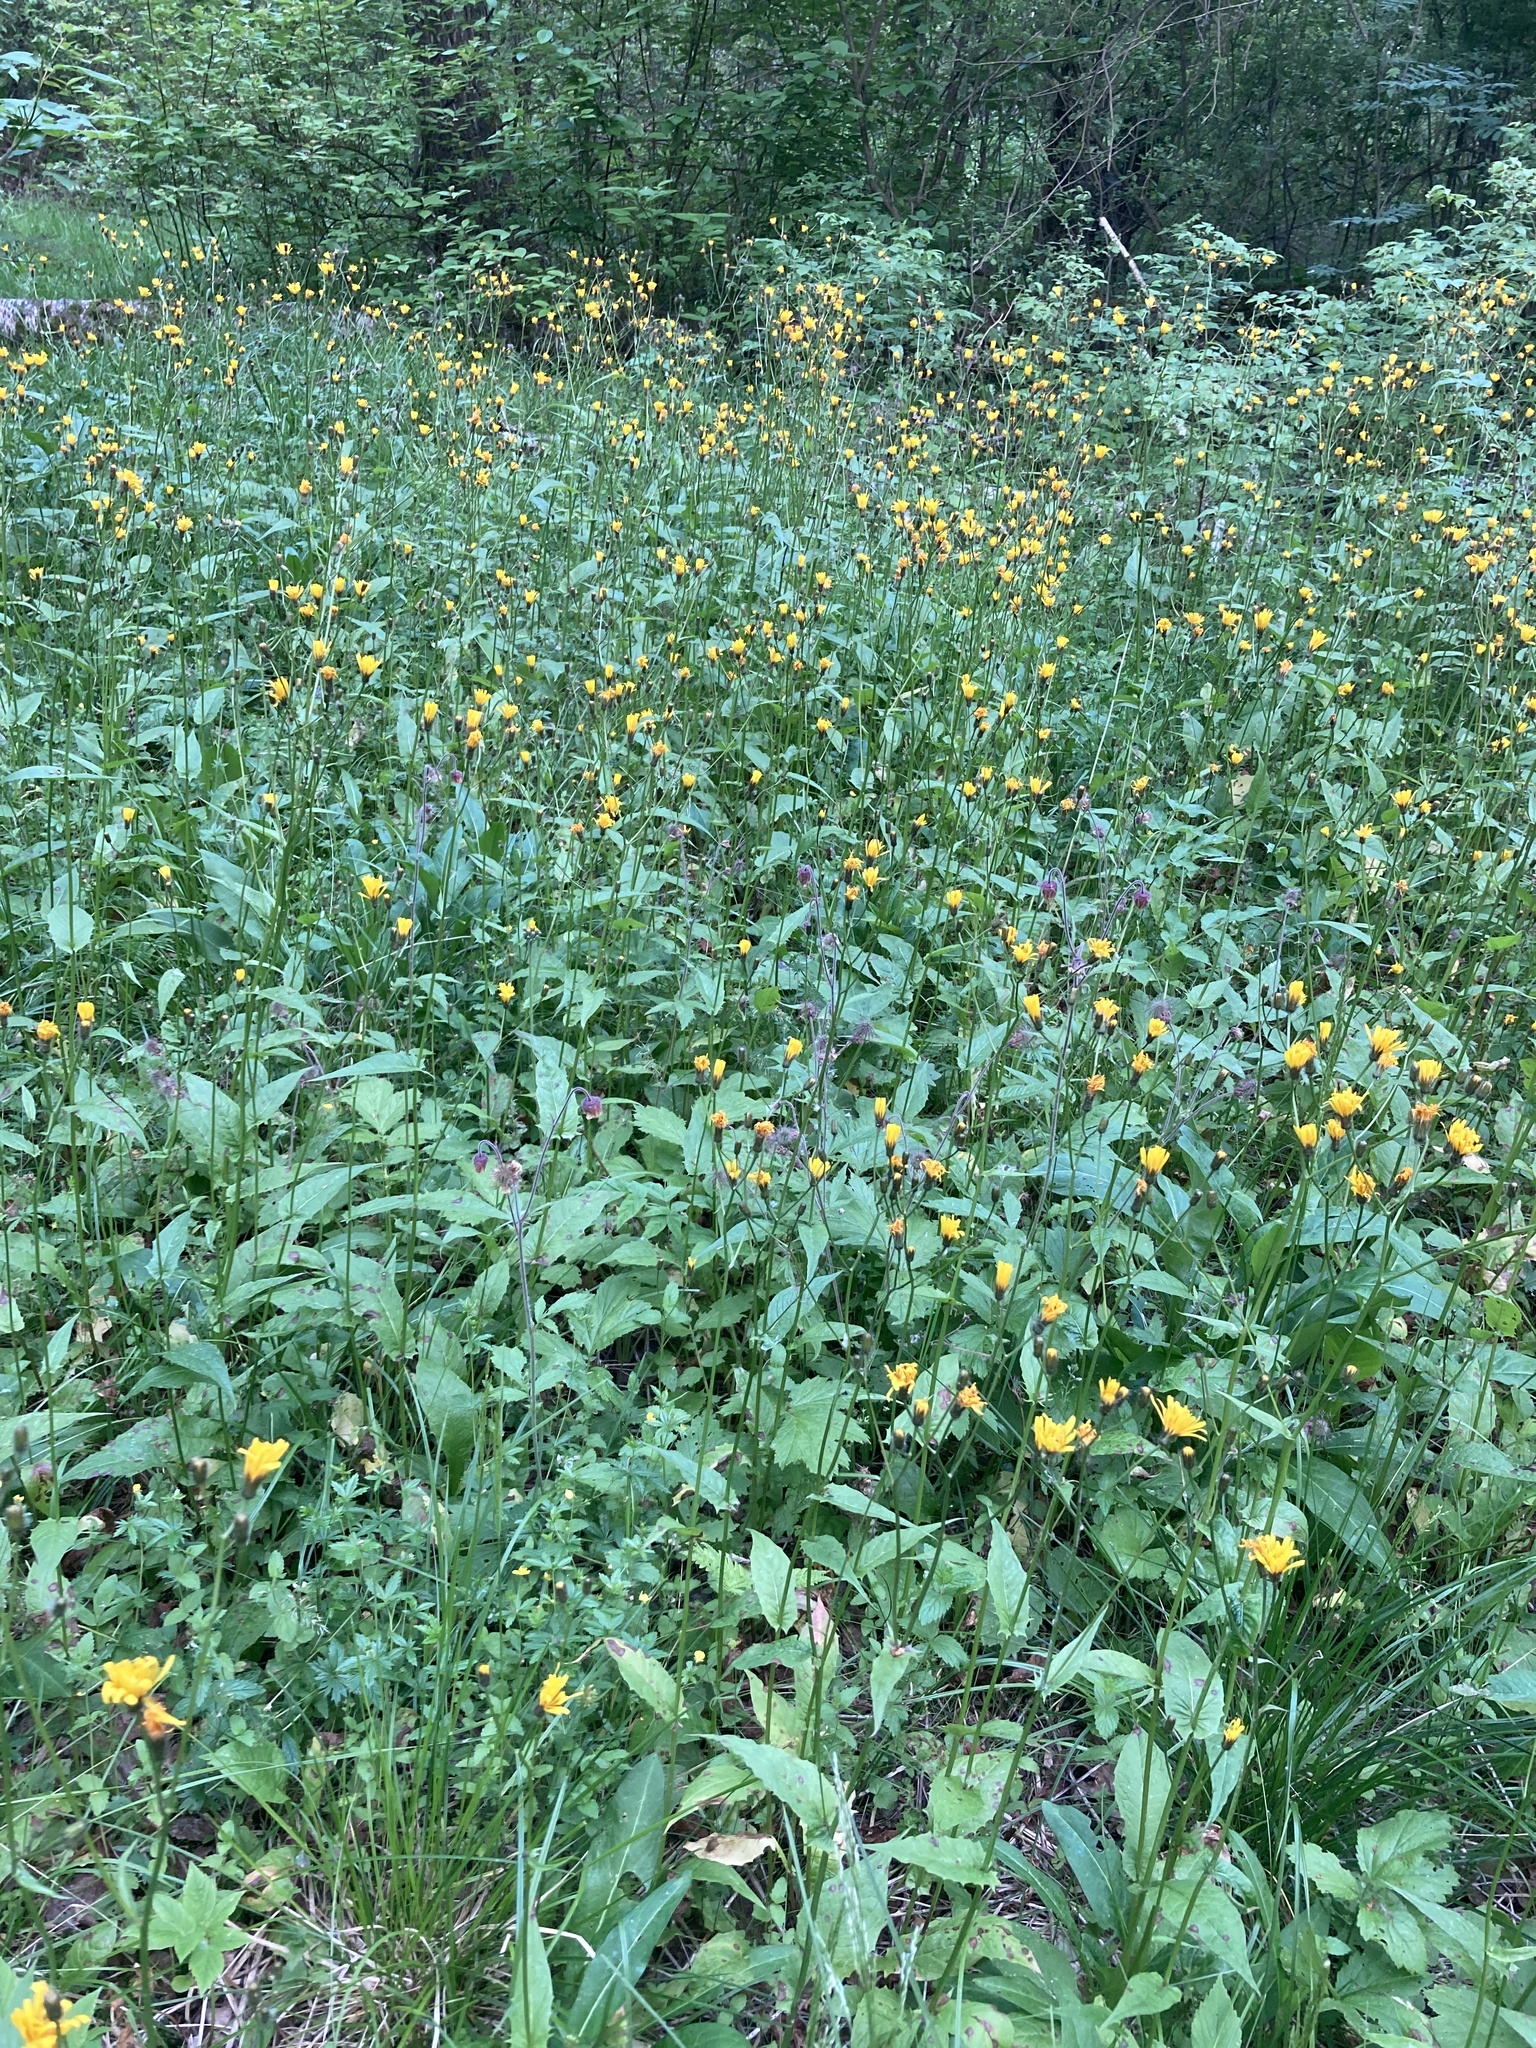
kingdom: Plantae
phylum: Tracheophyta
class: Magnoliopsida
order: Asterales
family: Asteraceae
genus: Crepis
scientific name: Crepis paludosa
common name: Marsh hawk's-beard
